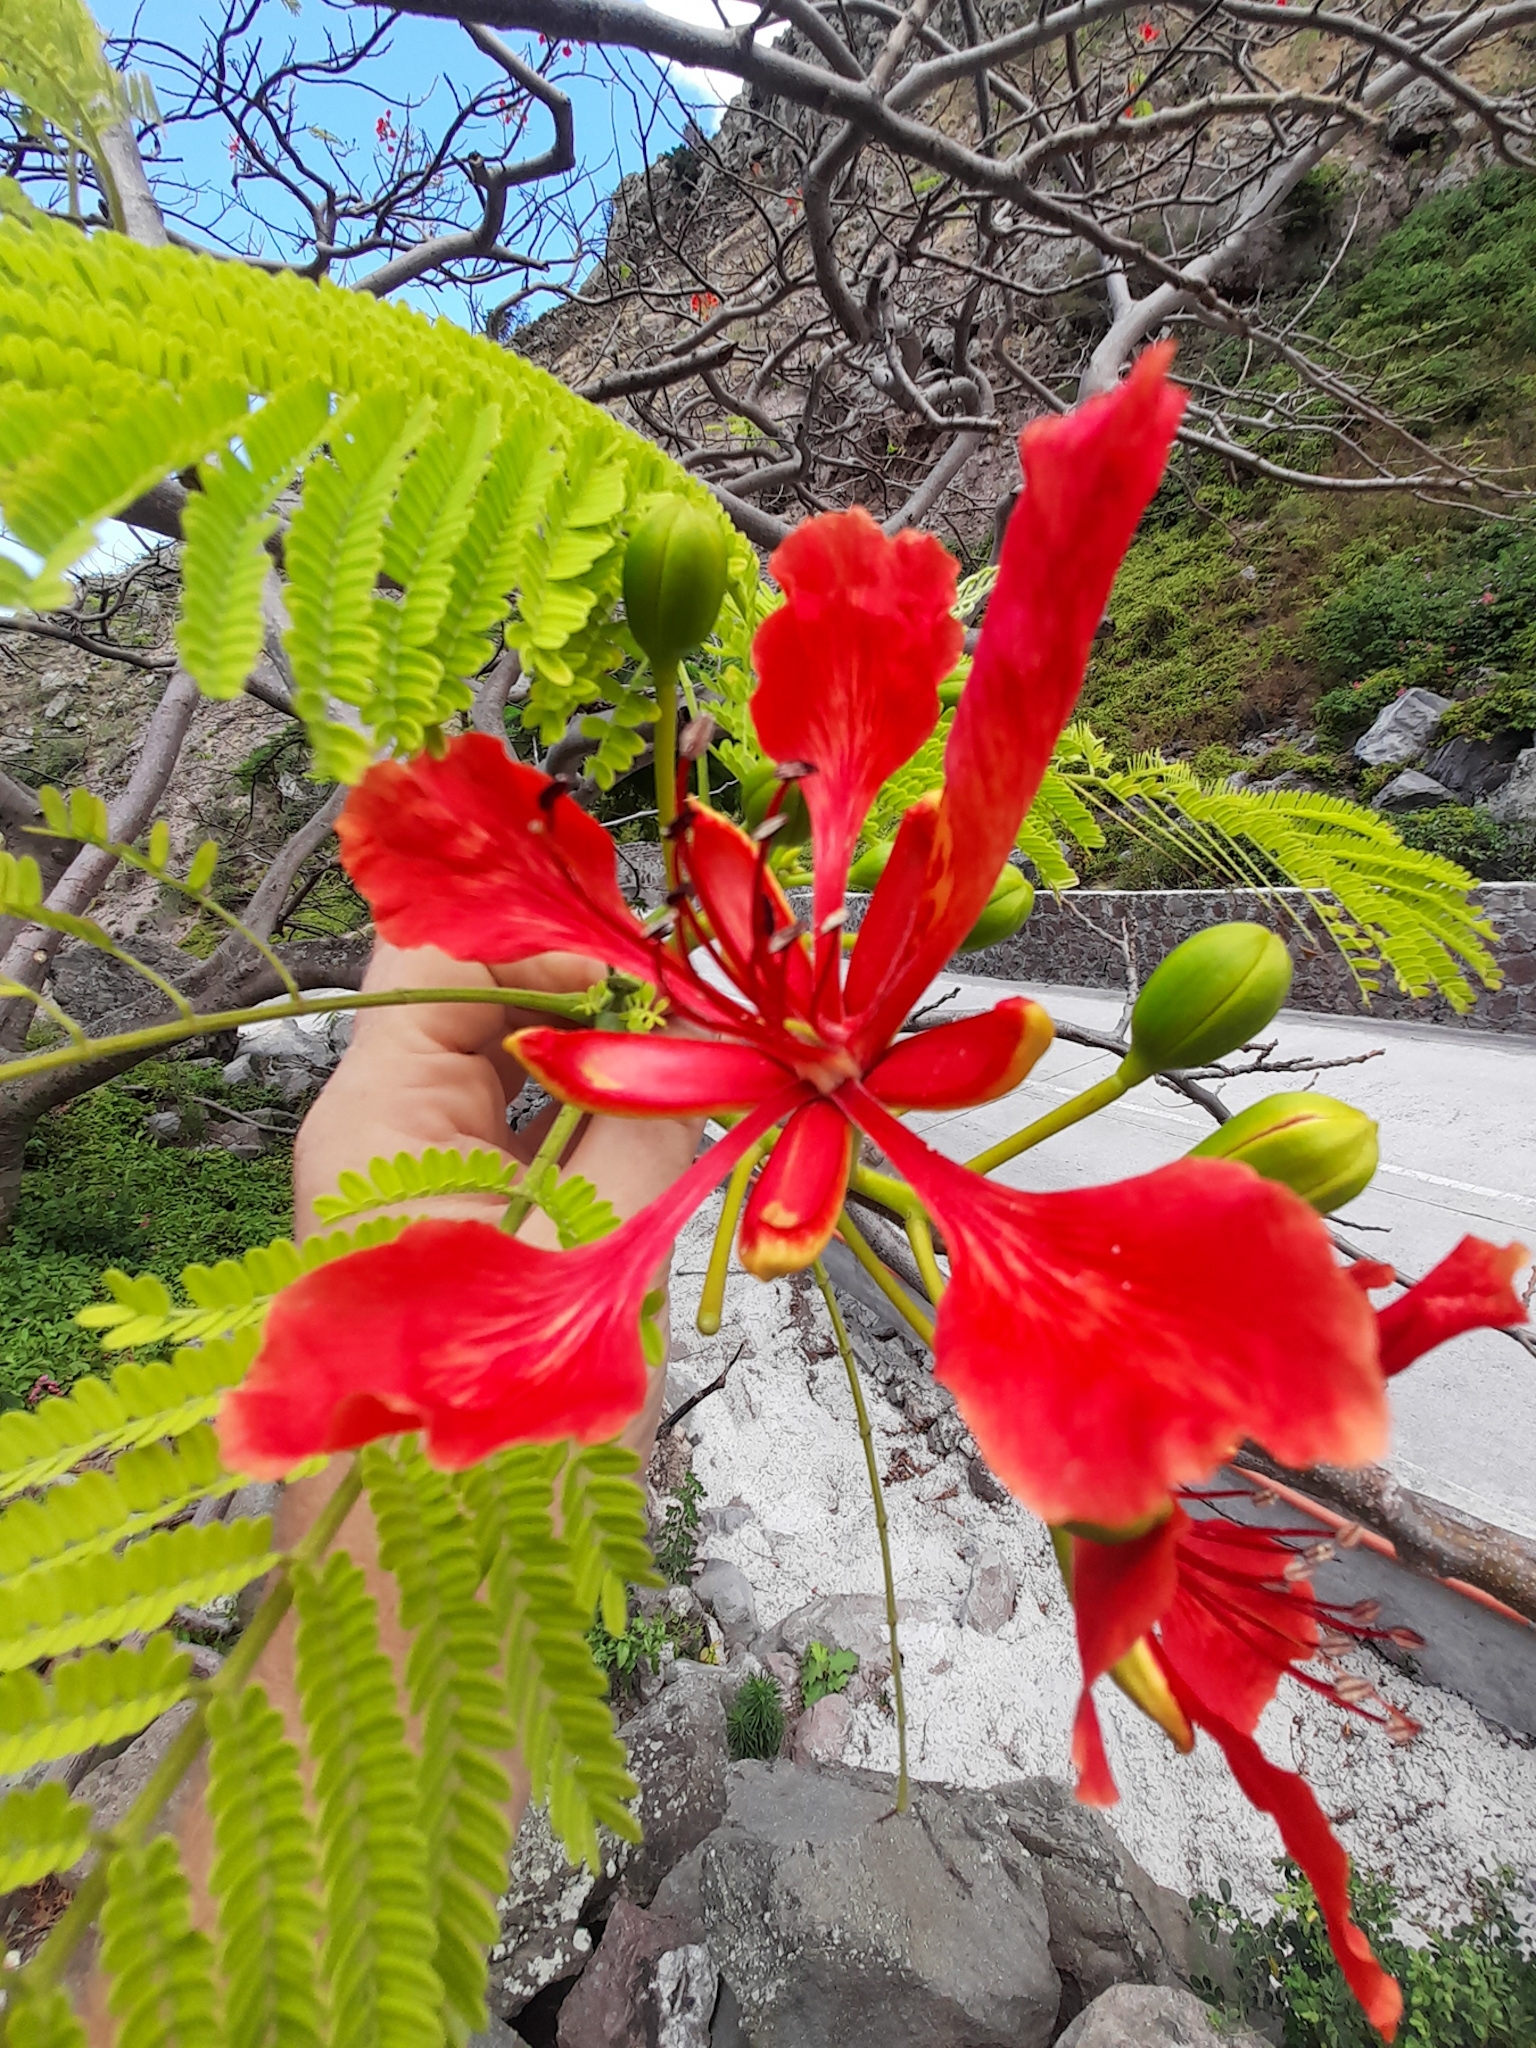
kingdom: Plantae
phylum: Tracheophyta
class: Magnoliopsida
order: Fabales
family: Fabaceae
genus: Delonix
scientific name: Delonix regia
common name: Royal poinciana
